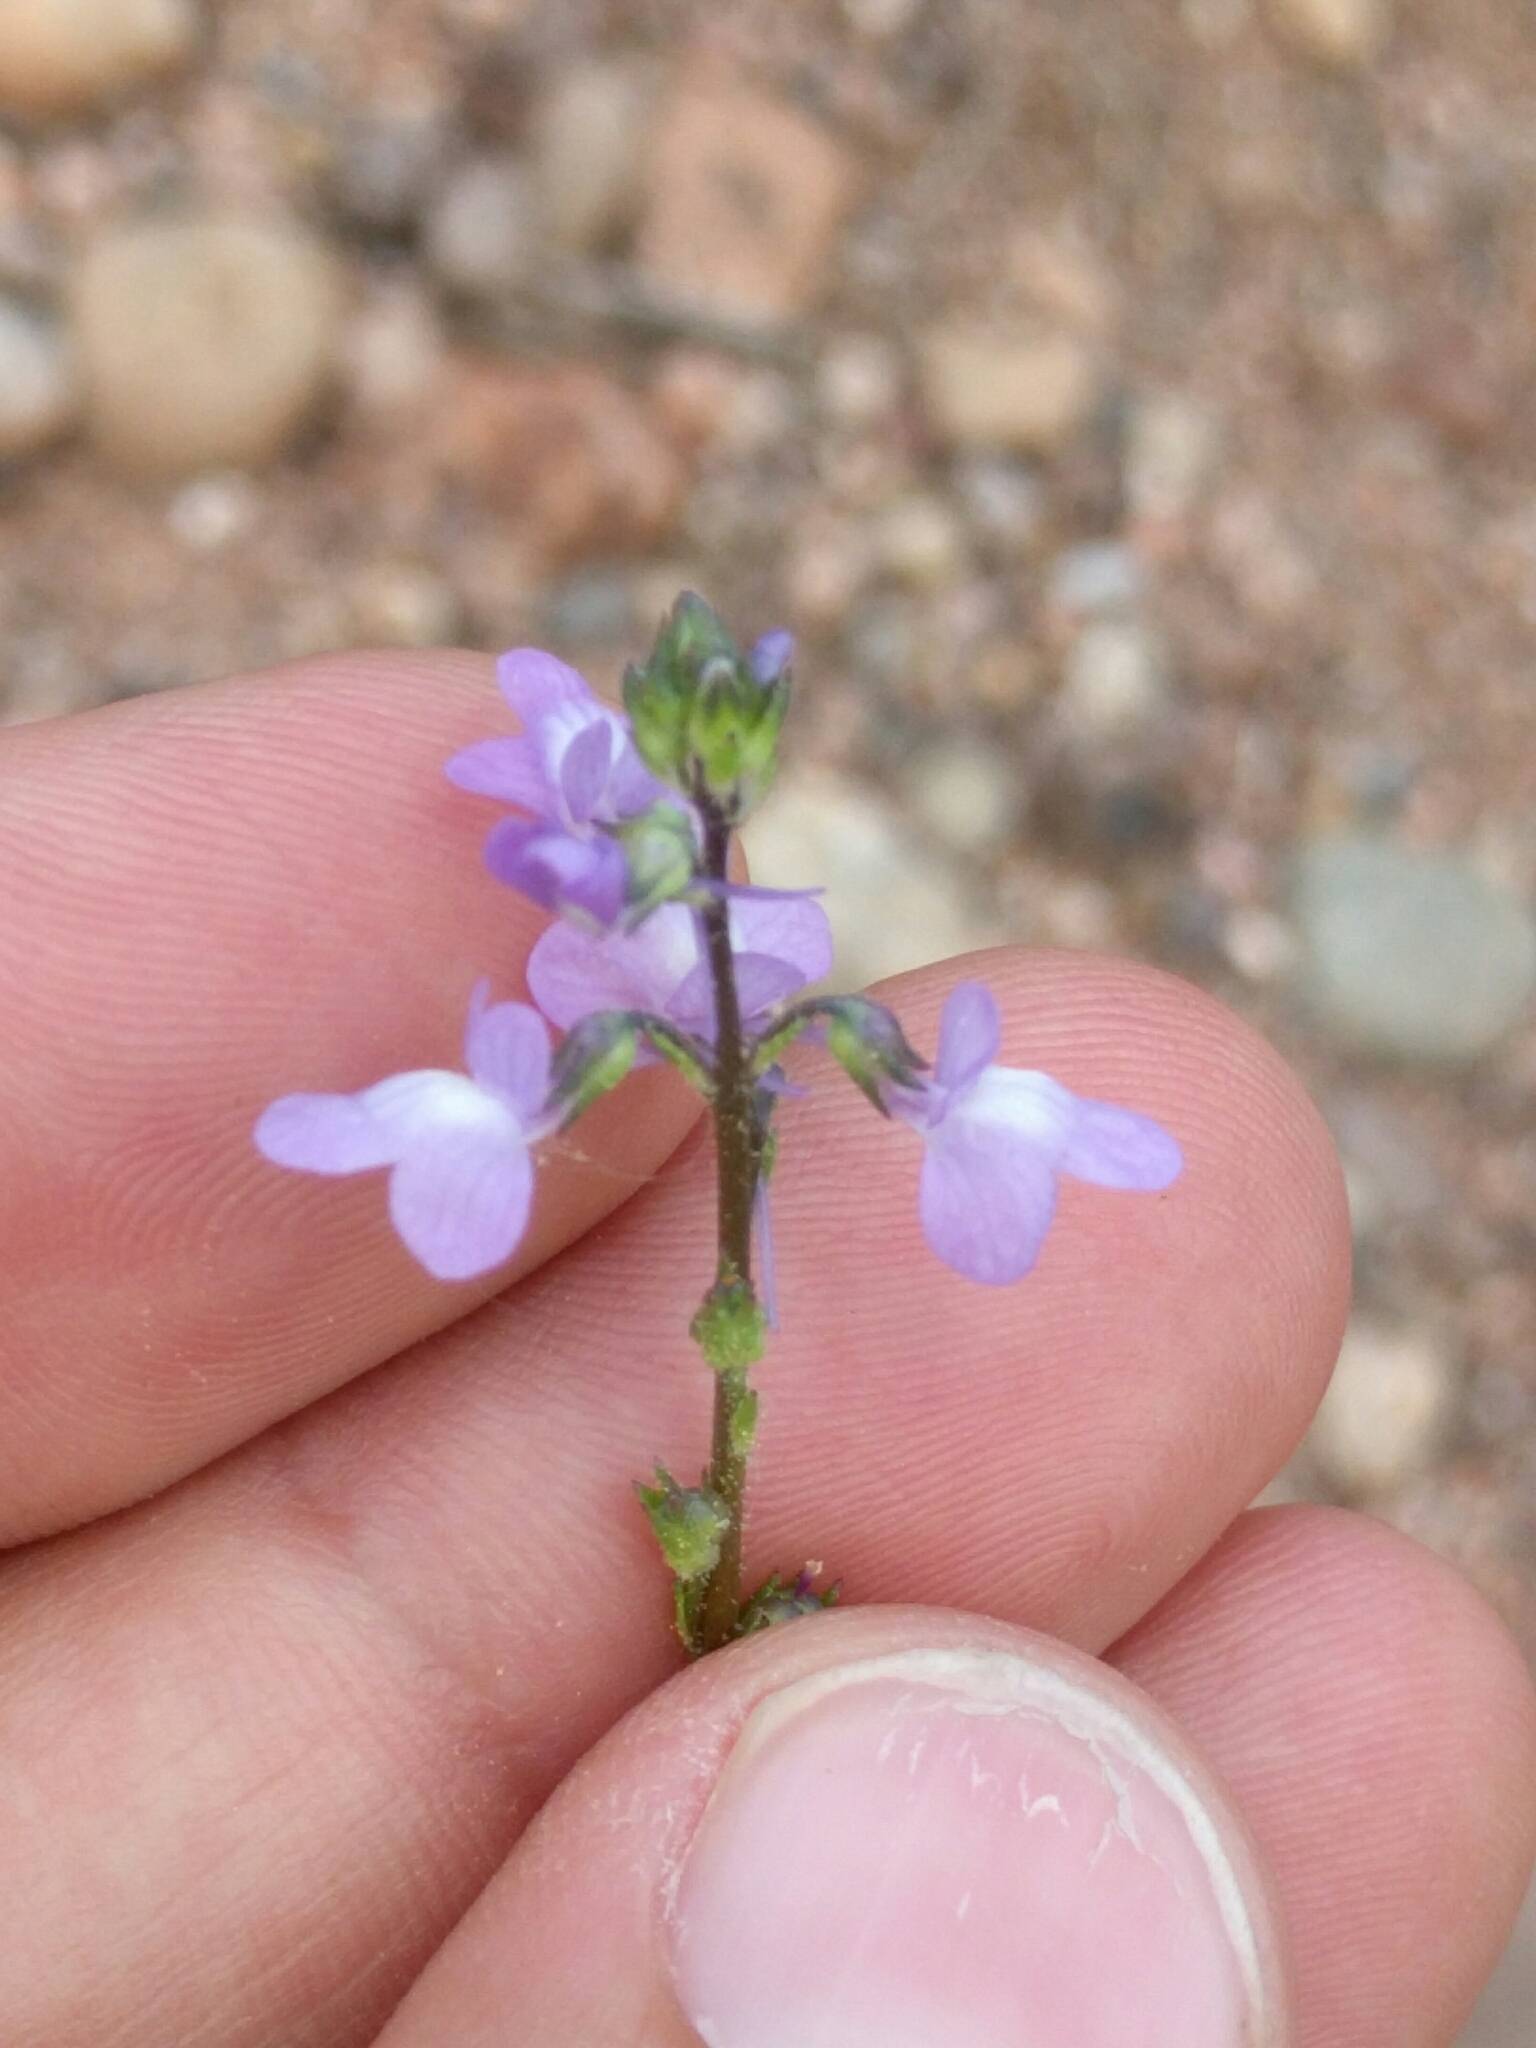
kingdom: Plantae
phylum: Tracheophyta
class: Magnoliopsida
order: Lamiales
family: Plantaginaceae
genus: Nuttallanthus
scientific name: Nuttallanthus canadensis
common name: Blue toadflax
